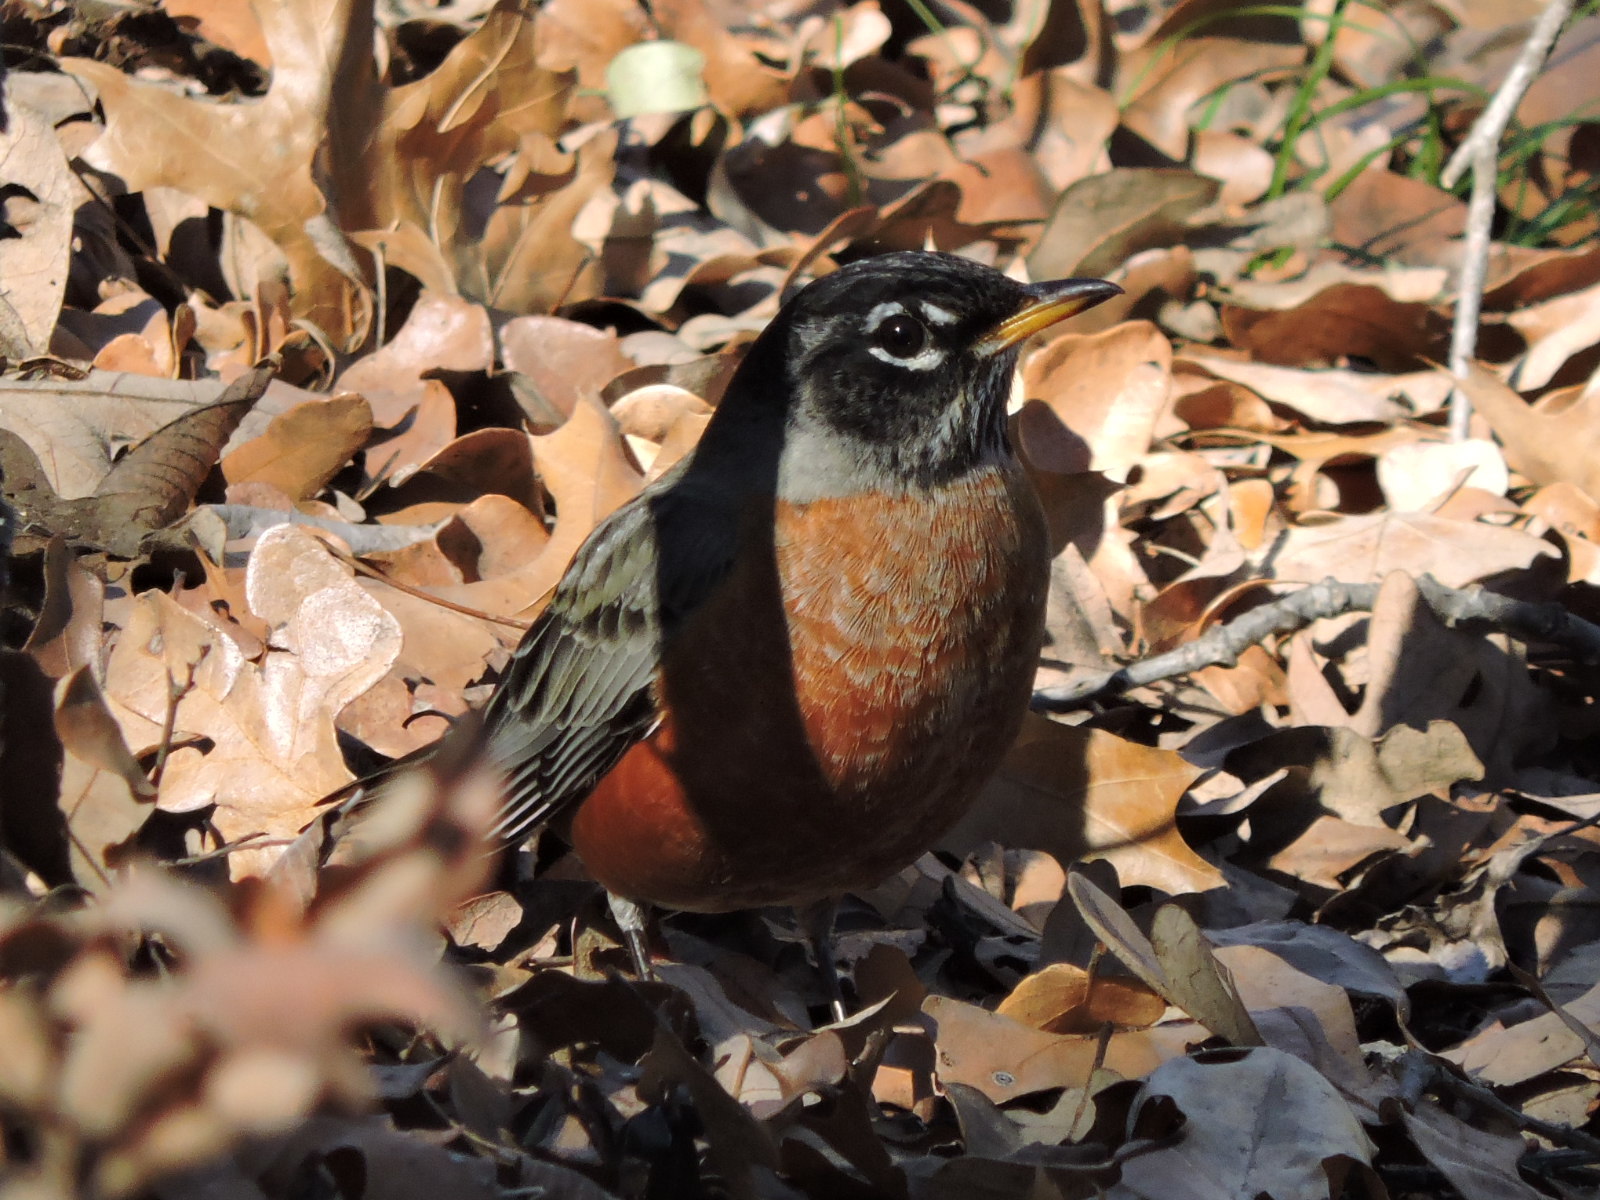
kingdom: Animalia
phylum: Chordata
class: Aves
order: Passeriformes
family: Turdidae
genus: Turdus
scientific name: Turdus migratorius
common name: American robin
